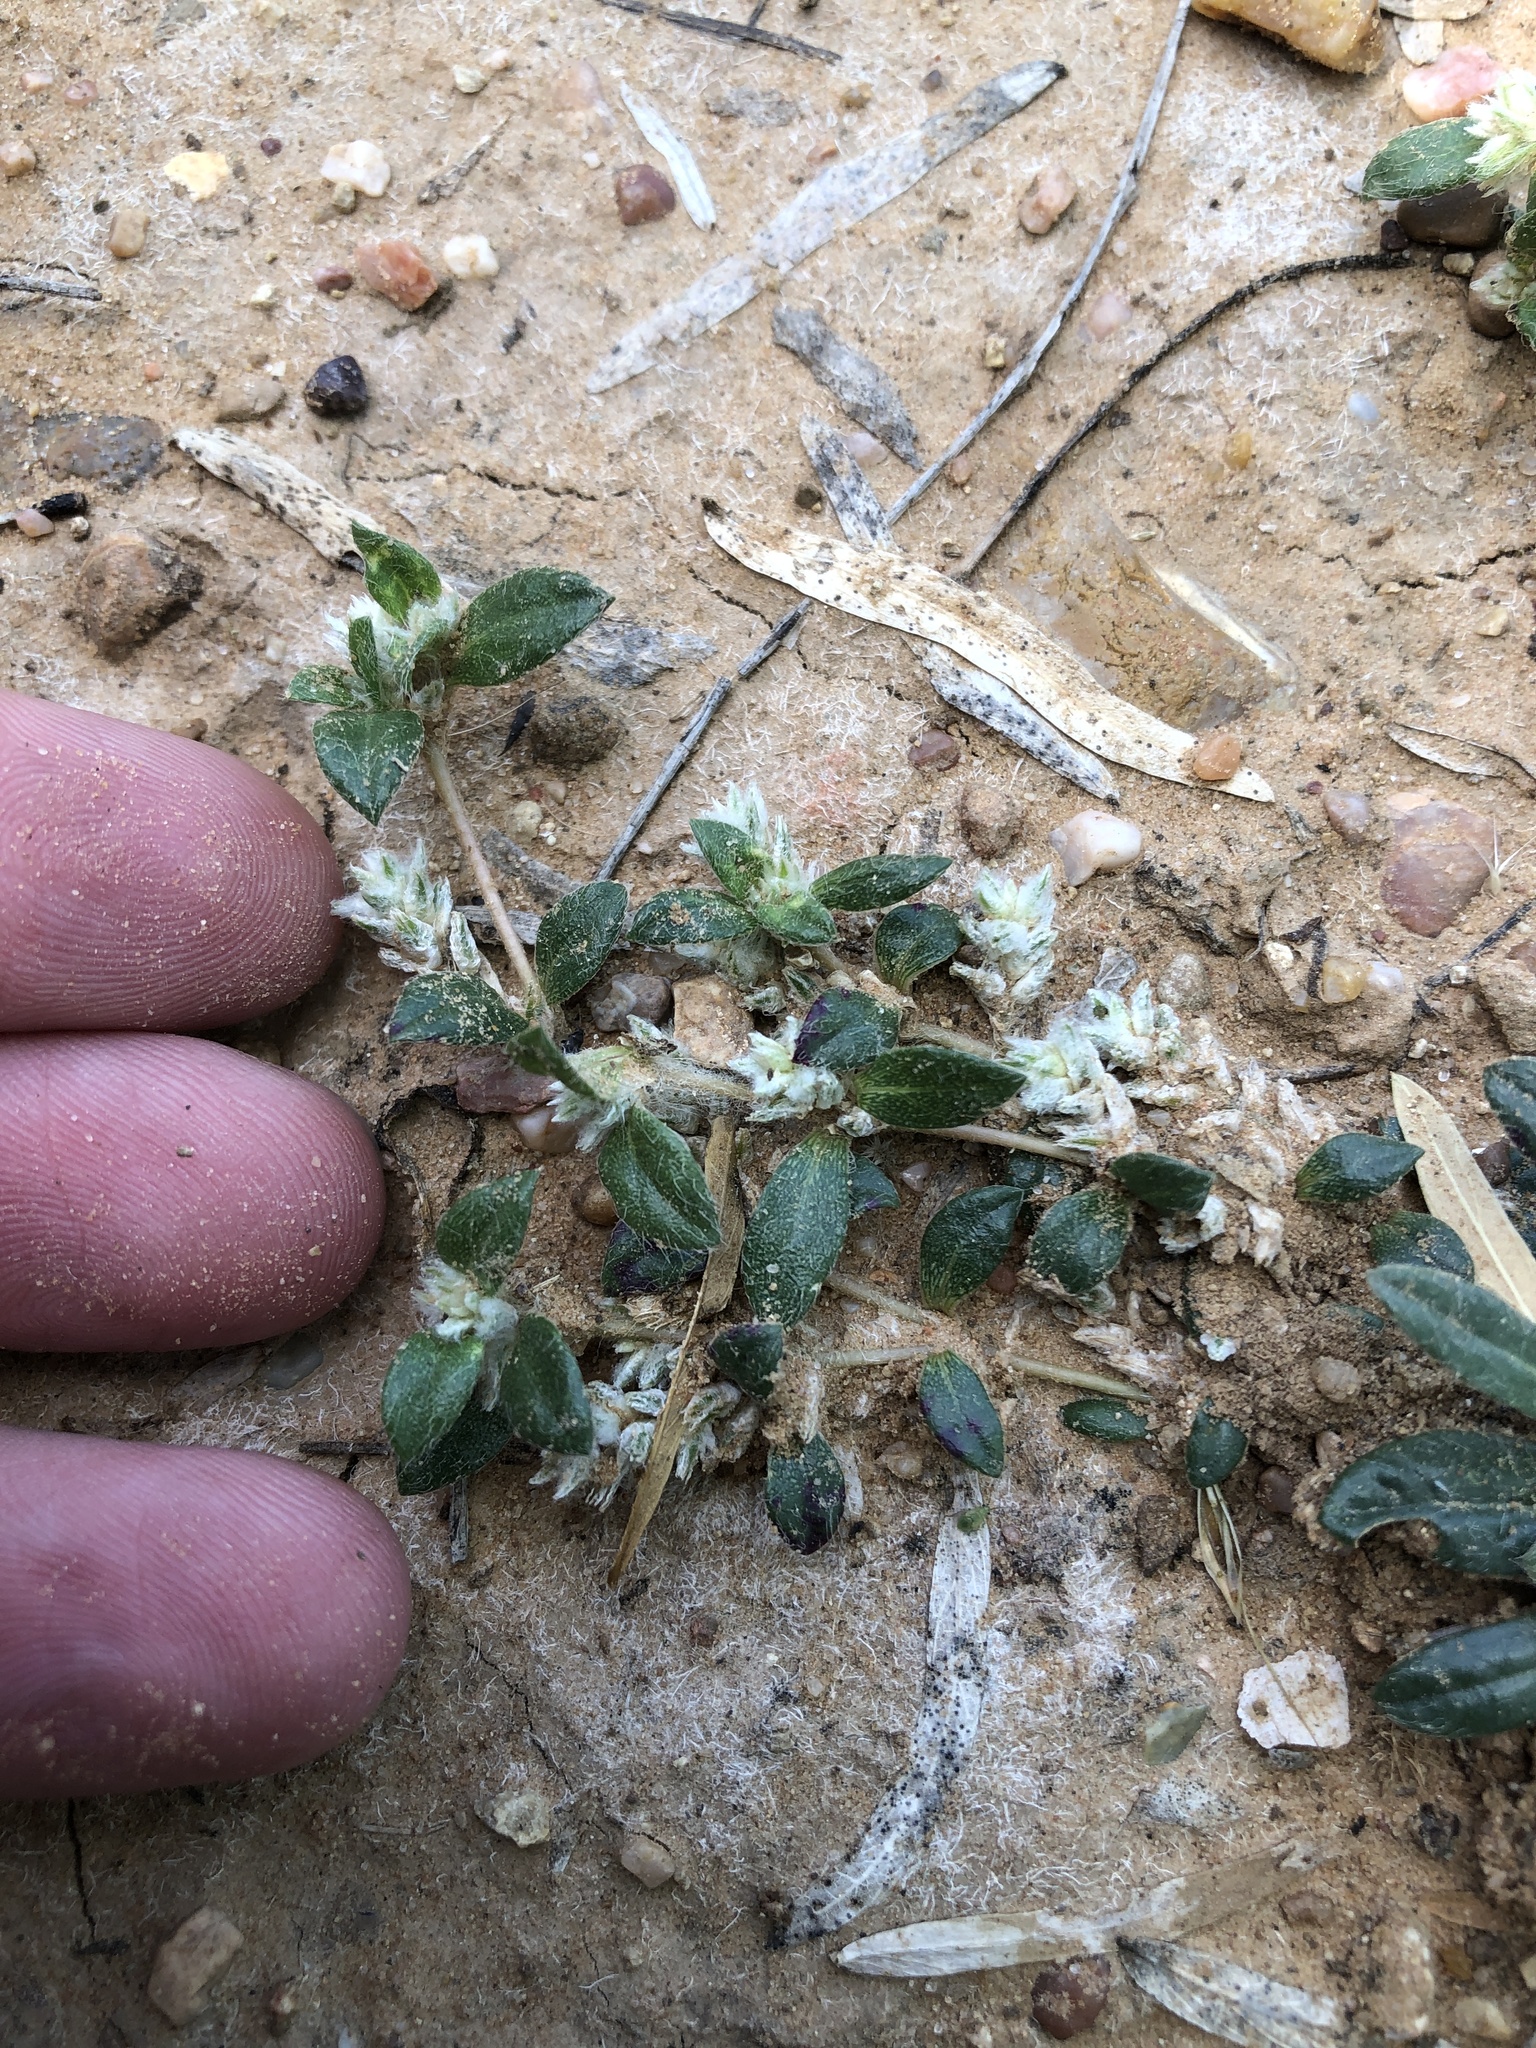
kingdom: Plantae
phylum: Tracheophyta
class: Magnoliopsida
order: Caryophyllales
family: Amaranthaceae
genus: Gomphrena
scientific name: Gomphrena lanuparonychioides
